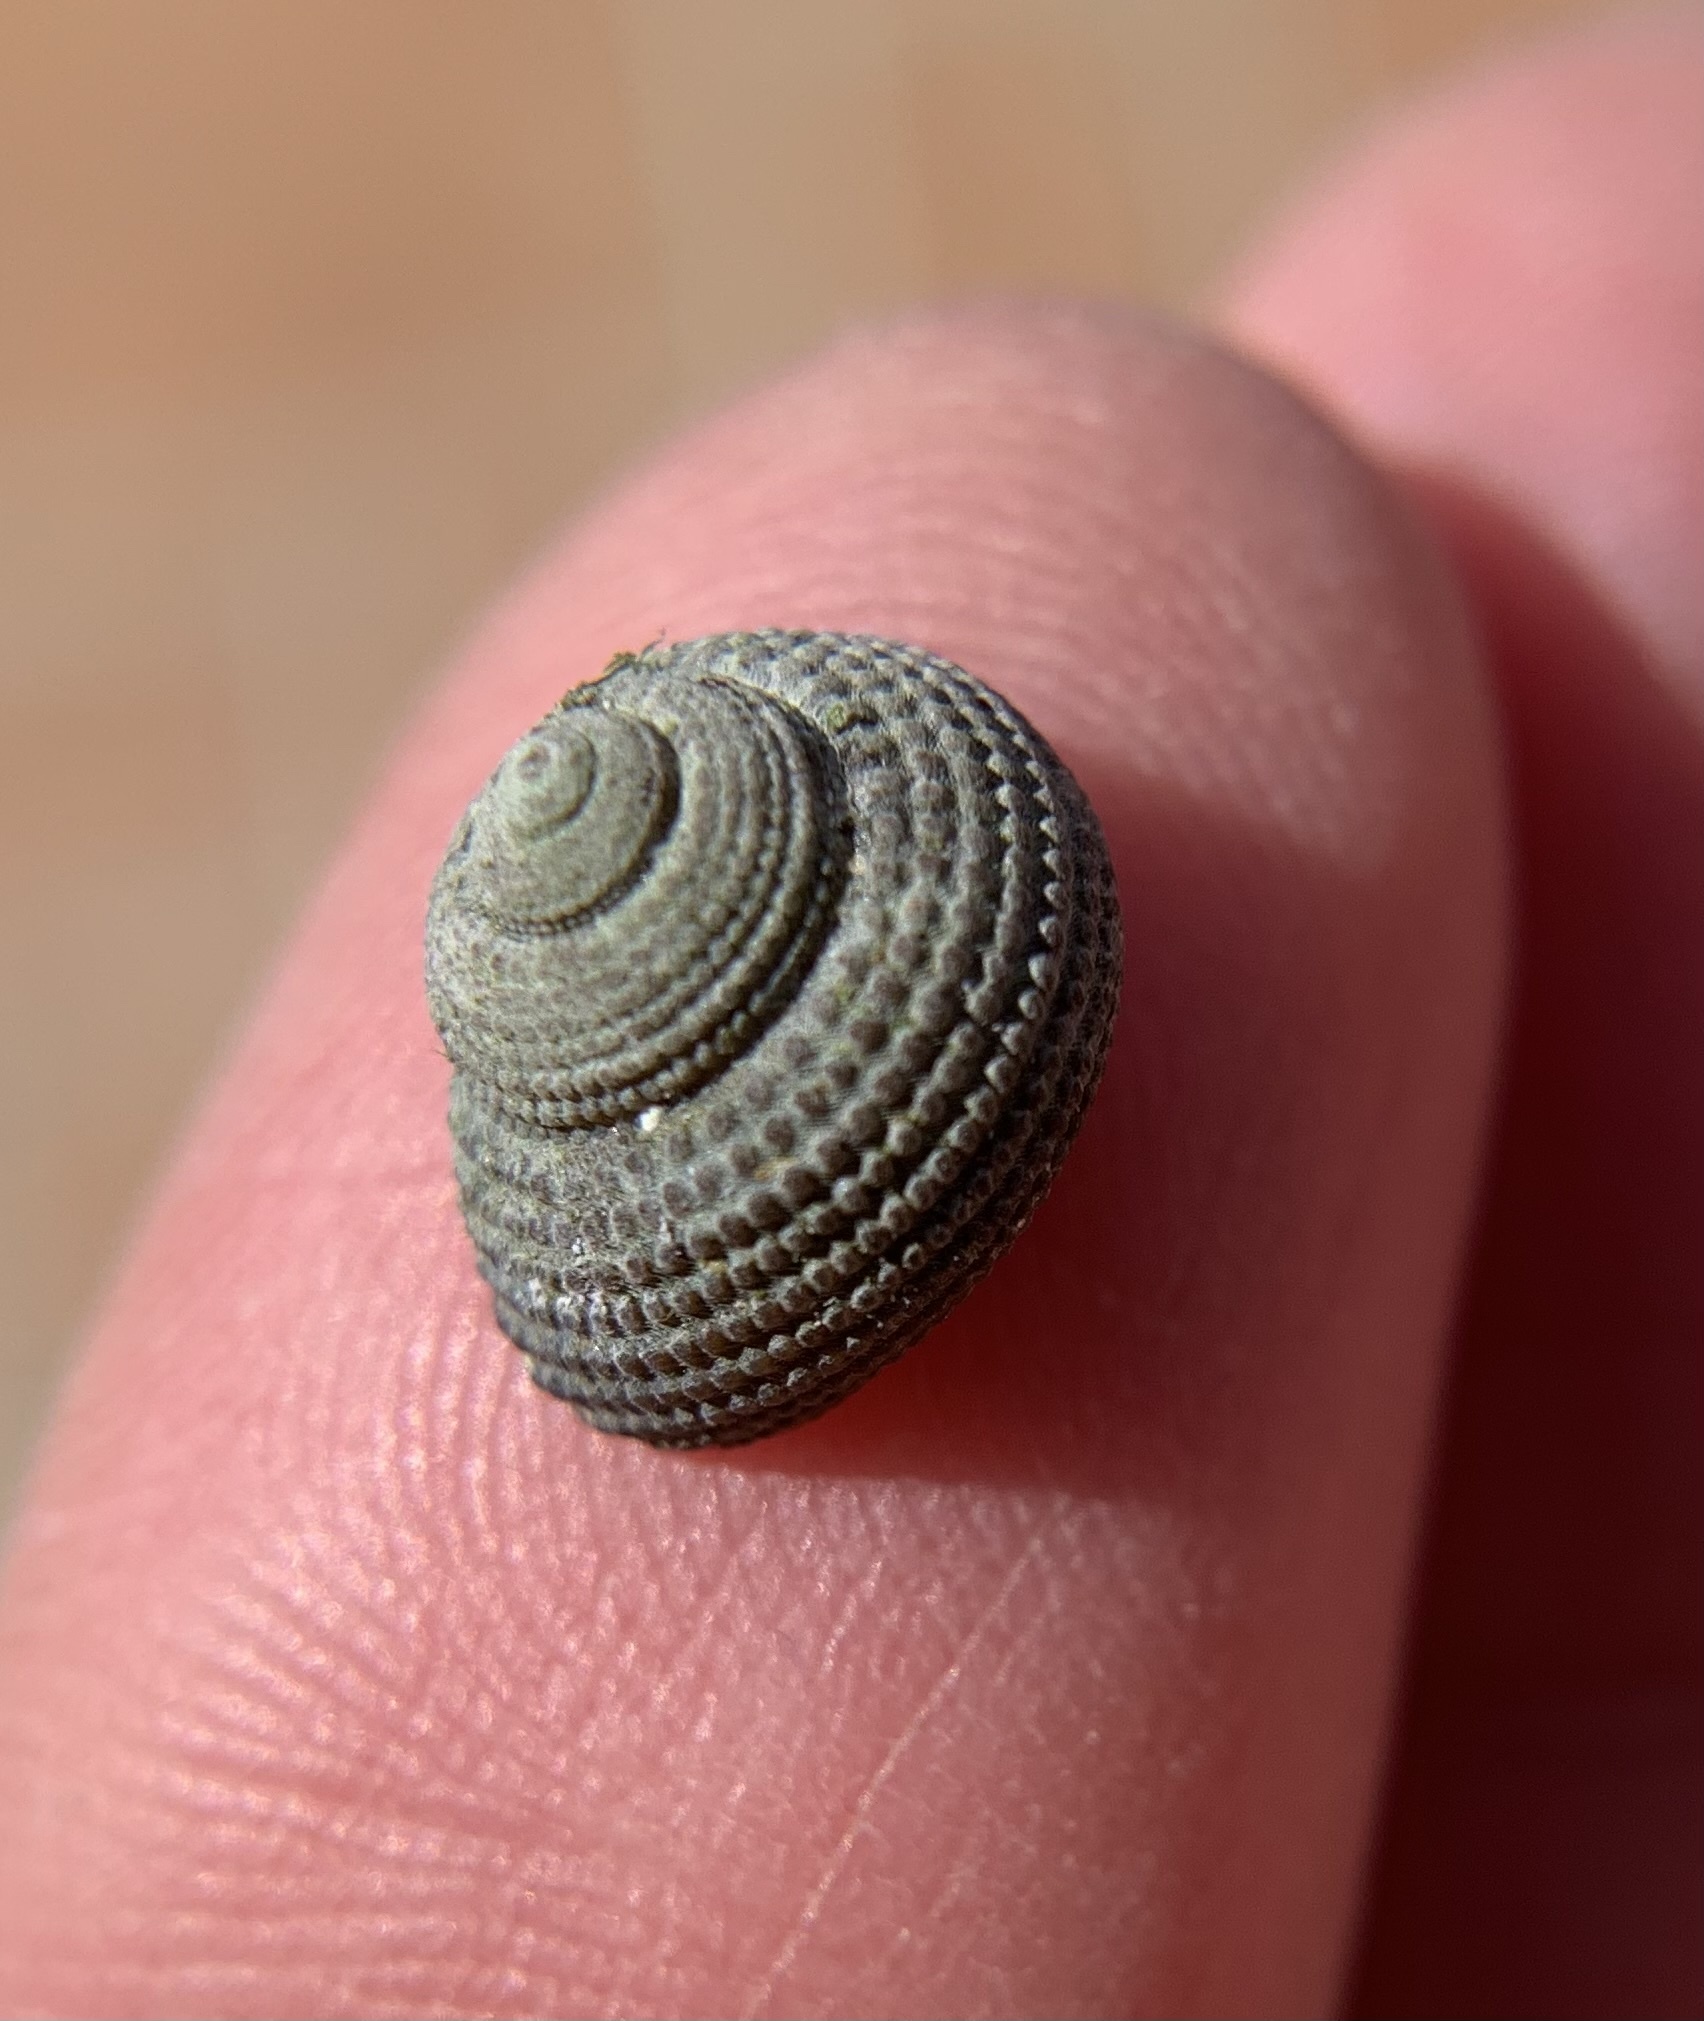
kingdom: Animalia
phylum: Mollusca
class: Gastropoda
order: Trochida
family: Trochidae
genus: Clanculus
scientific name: Clanculus corallinus
